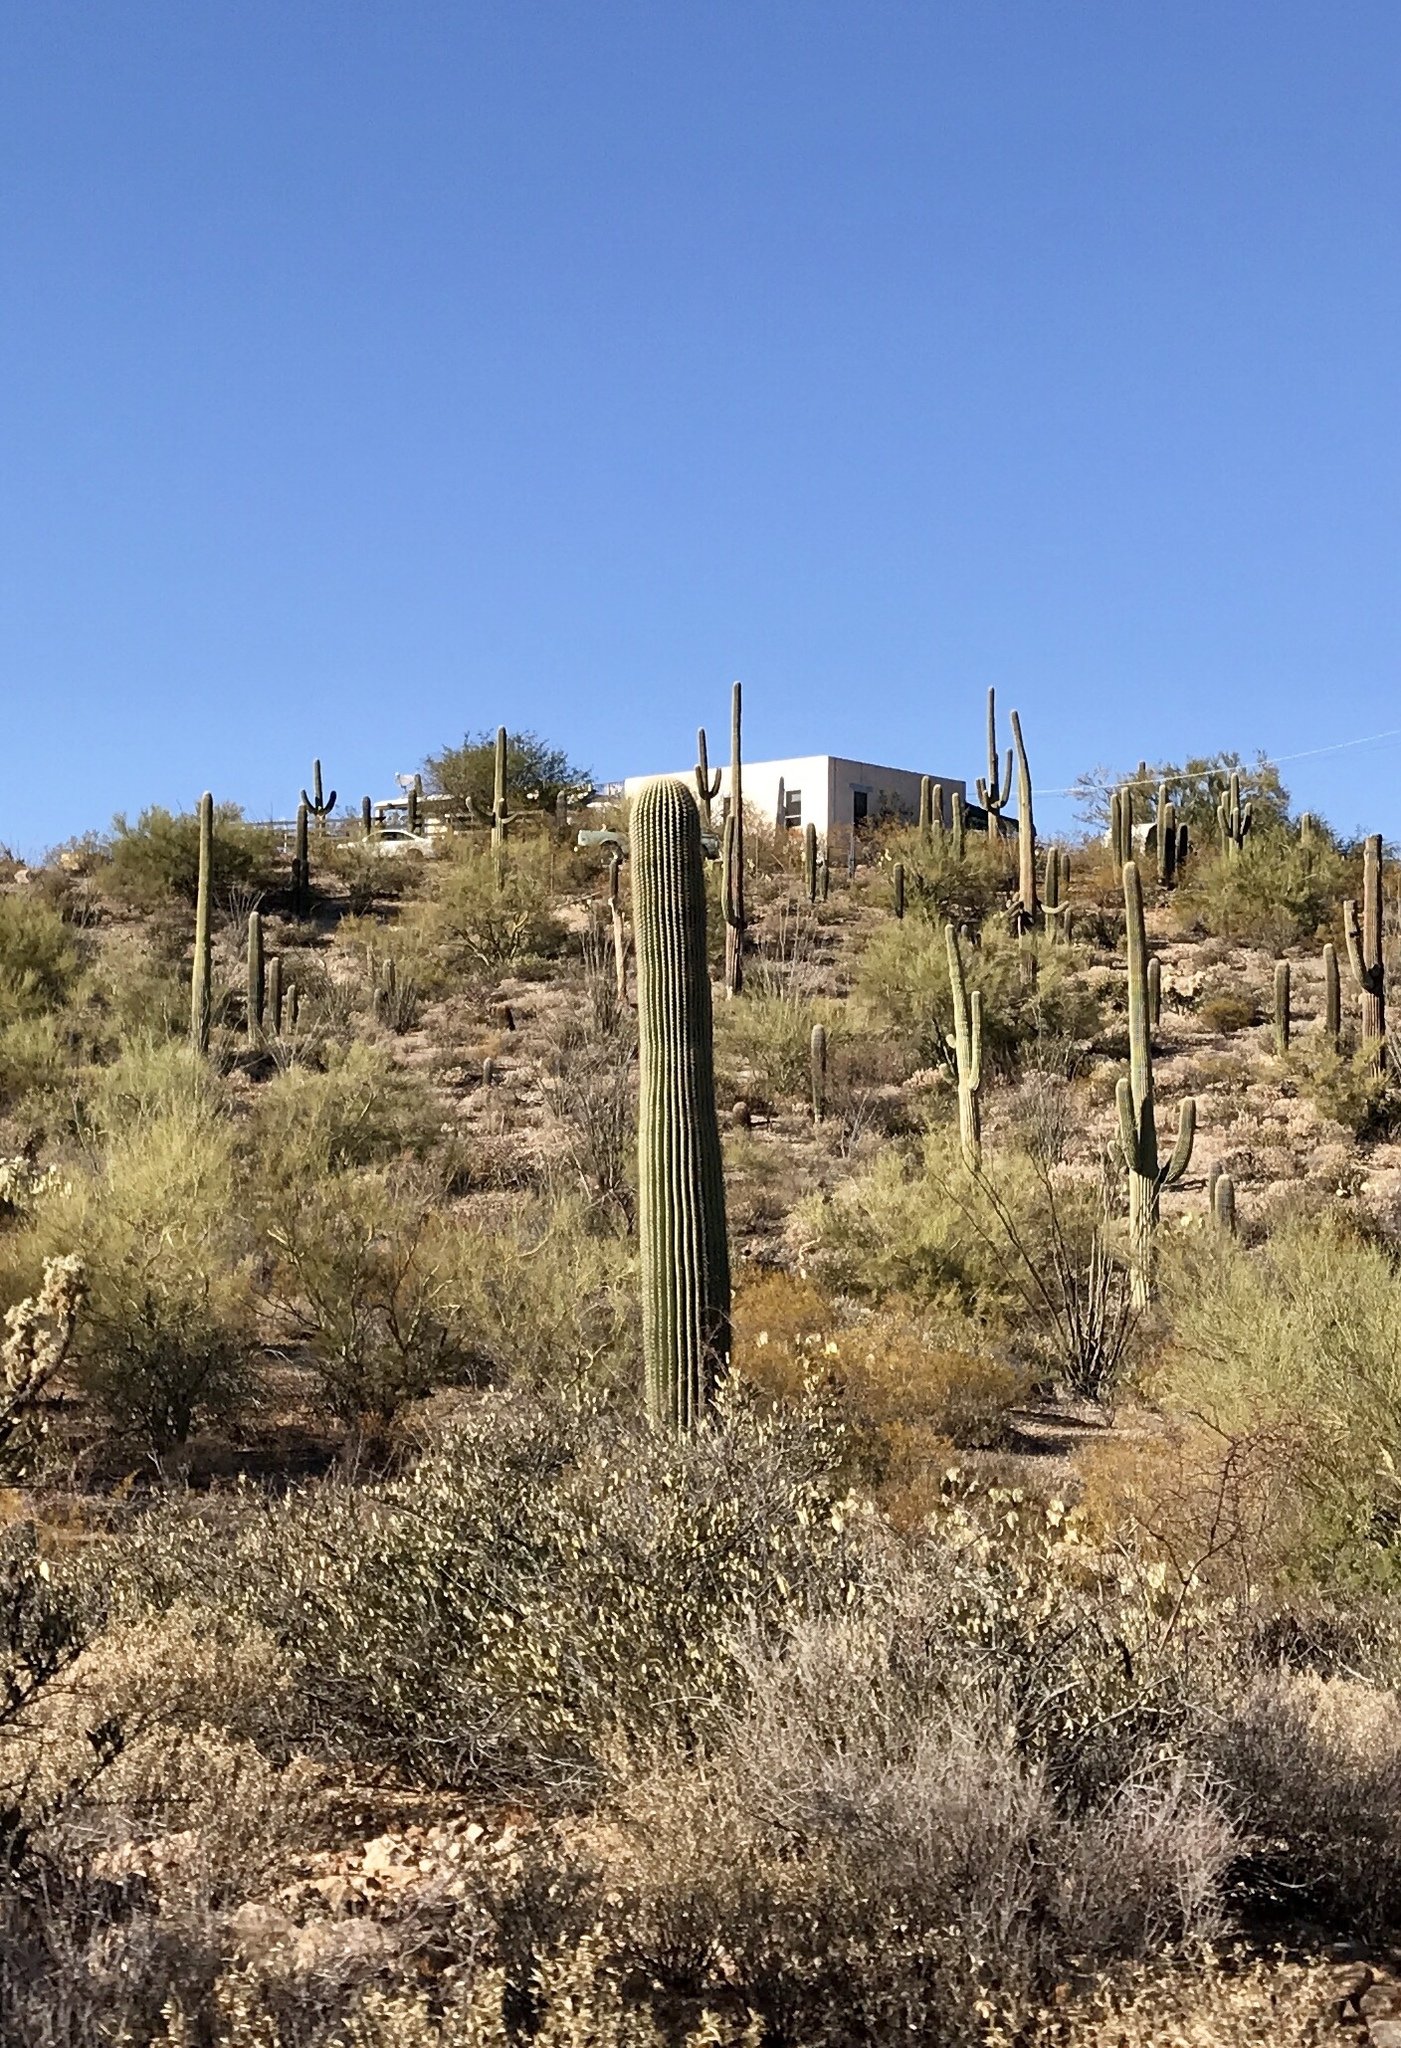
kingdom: Plantae
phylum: Tracheophyta
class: Magnoliopsida
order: Caryophyllales
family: Cactaceae
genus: Carnegiea
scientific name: Carnegiea gigantea
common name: Saguaro
